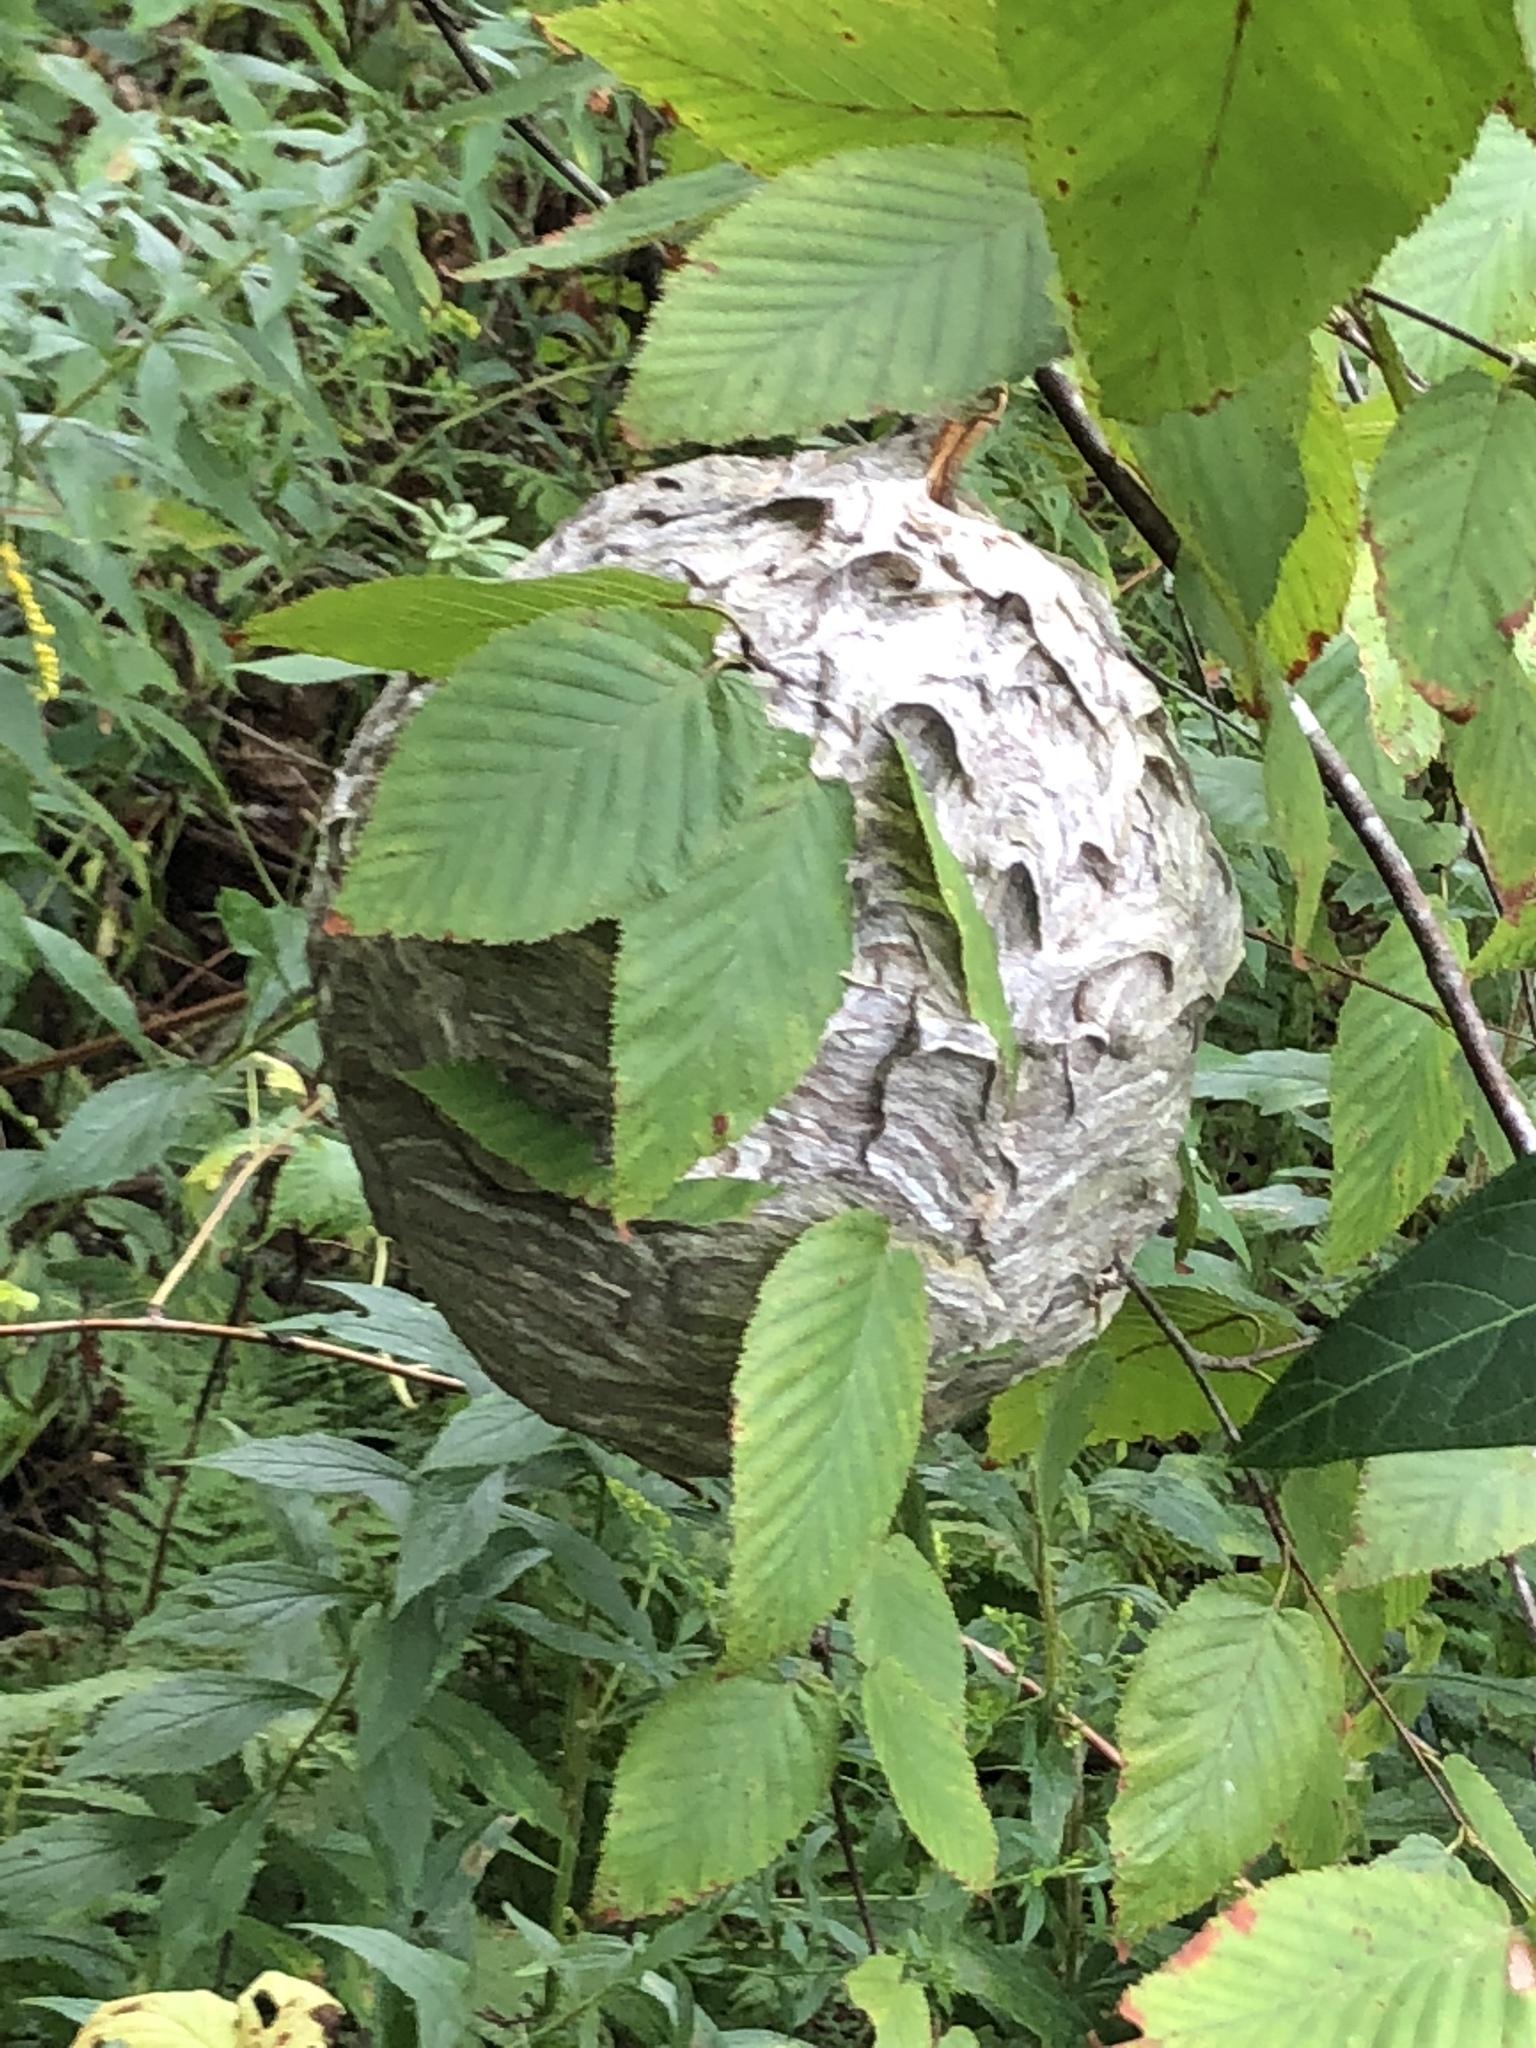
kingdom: Animalia
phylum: Arthropoda
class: Insecta
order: Hymenoptera
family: Vespidae
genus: Dolichovespula
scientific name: Dolichovespula
